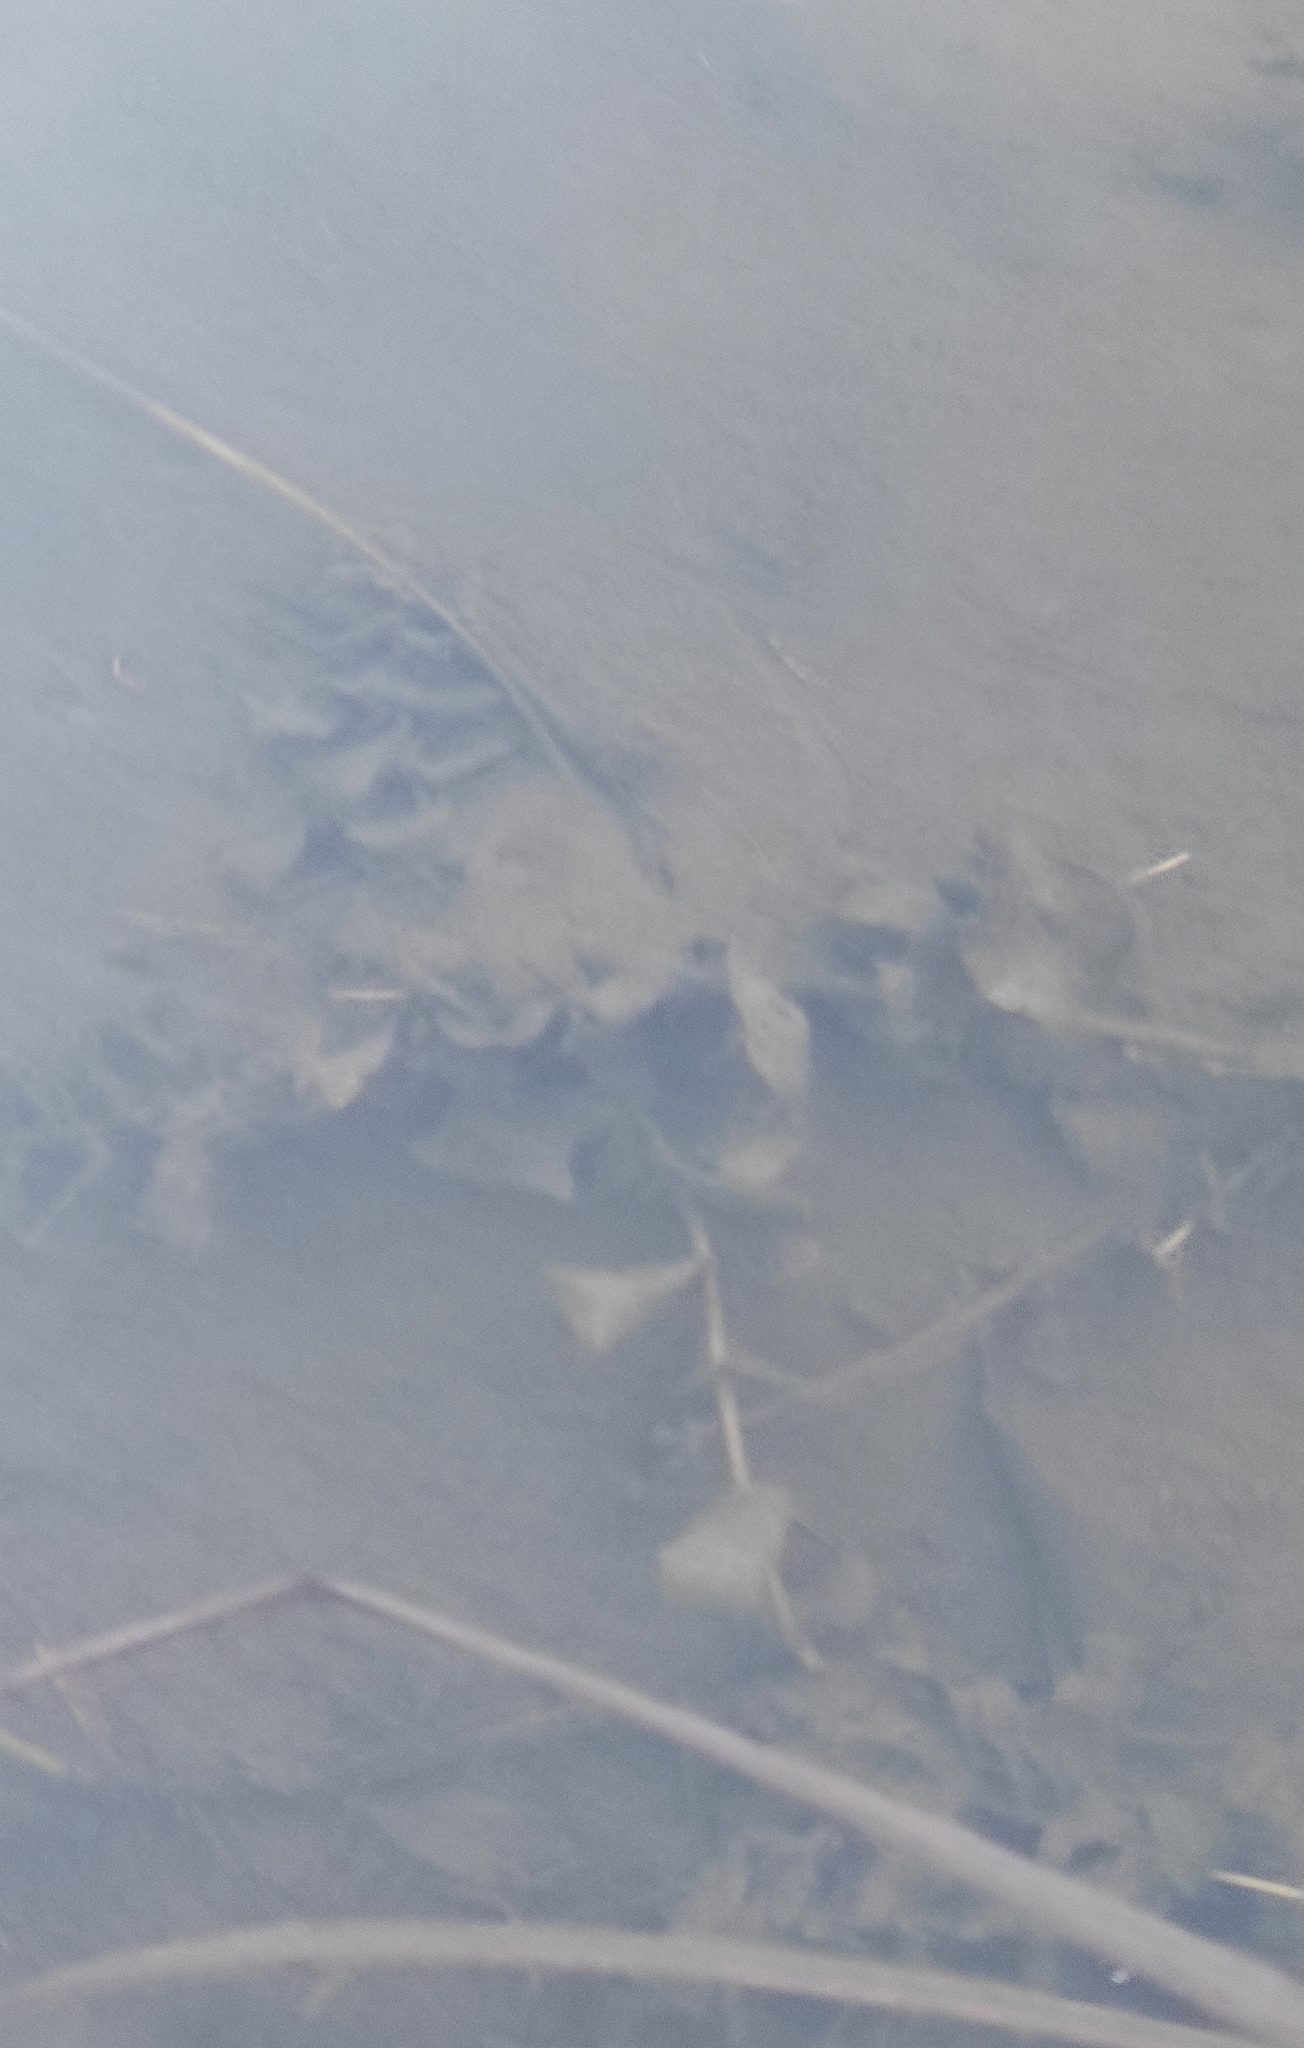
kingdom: Plantae
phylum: Tracheophyta
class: Liliopsida
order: Alismatales
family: Potamogetonaceae
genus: Potamogeton
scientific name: Potamogeton perfoliatus
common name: Perfoliate pondweed
